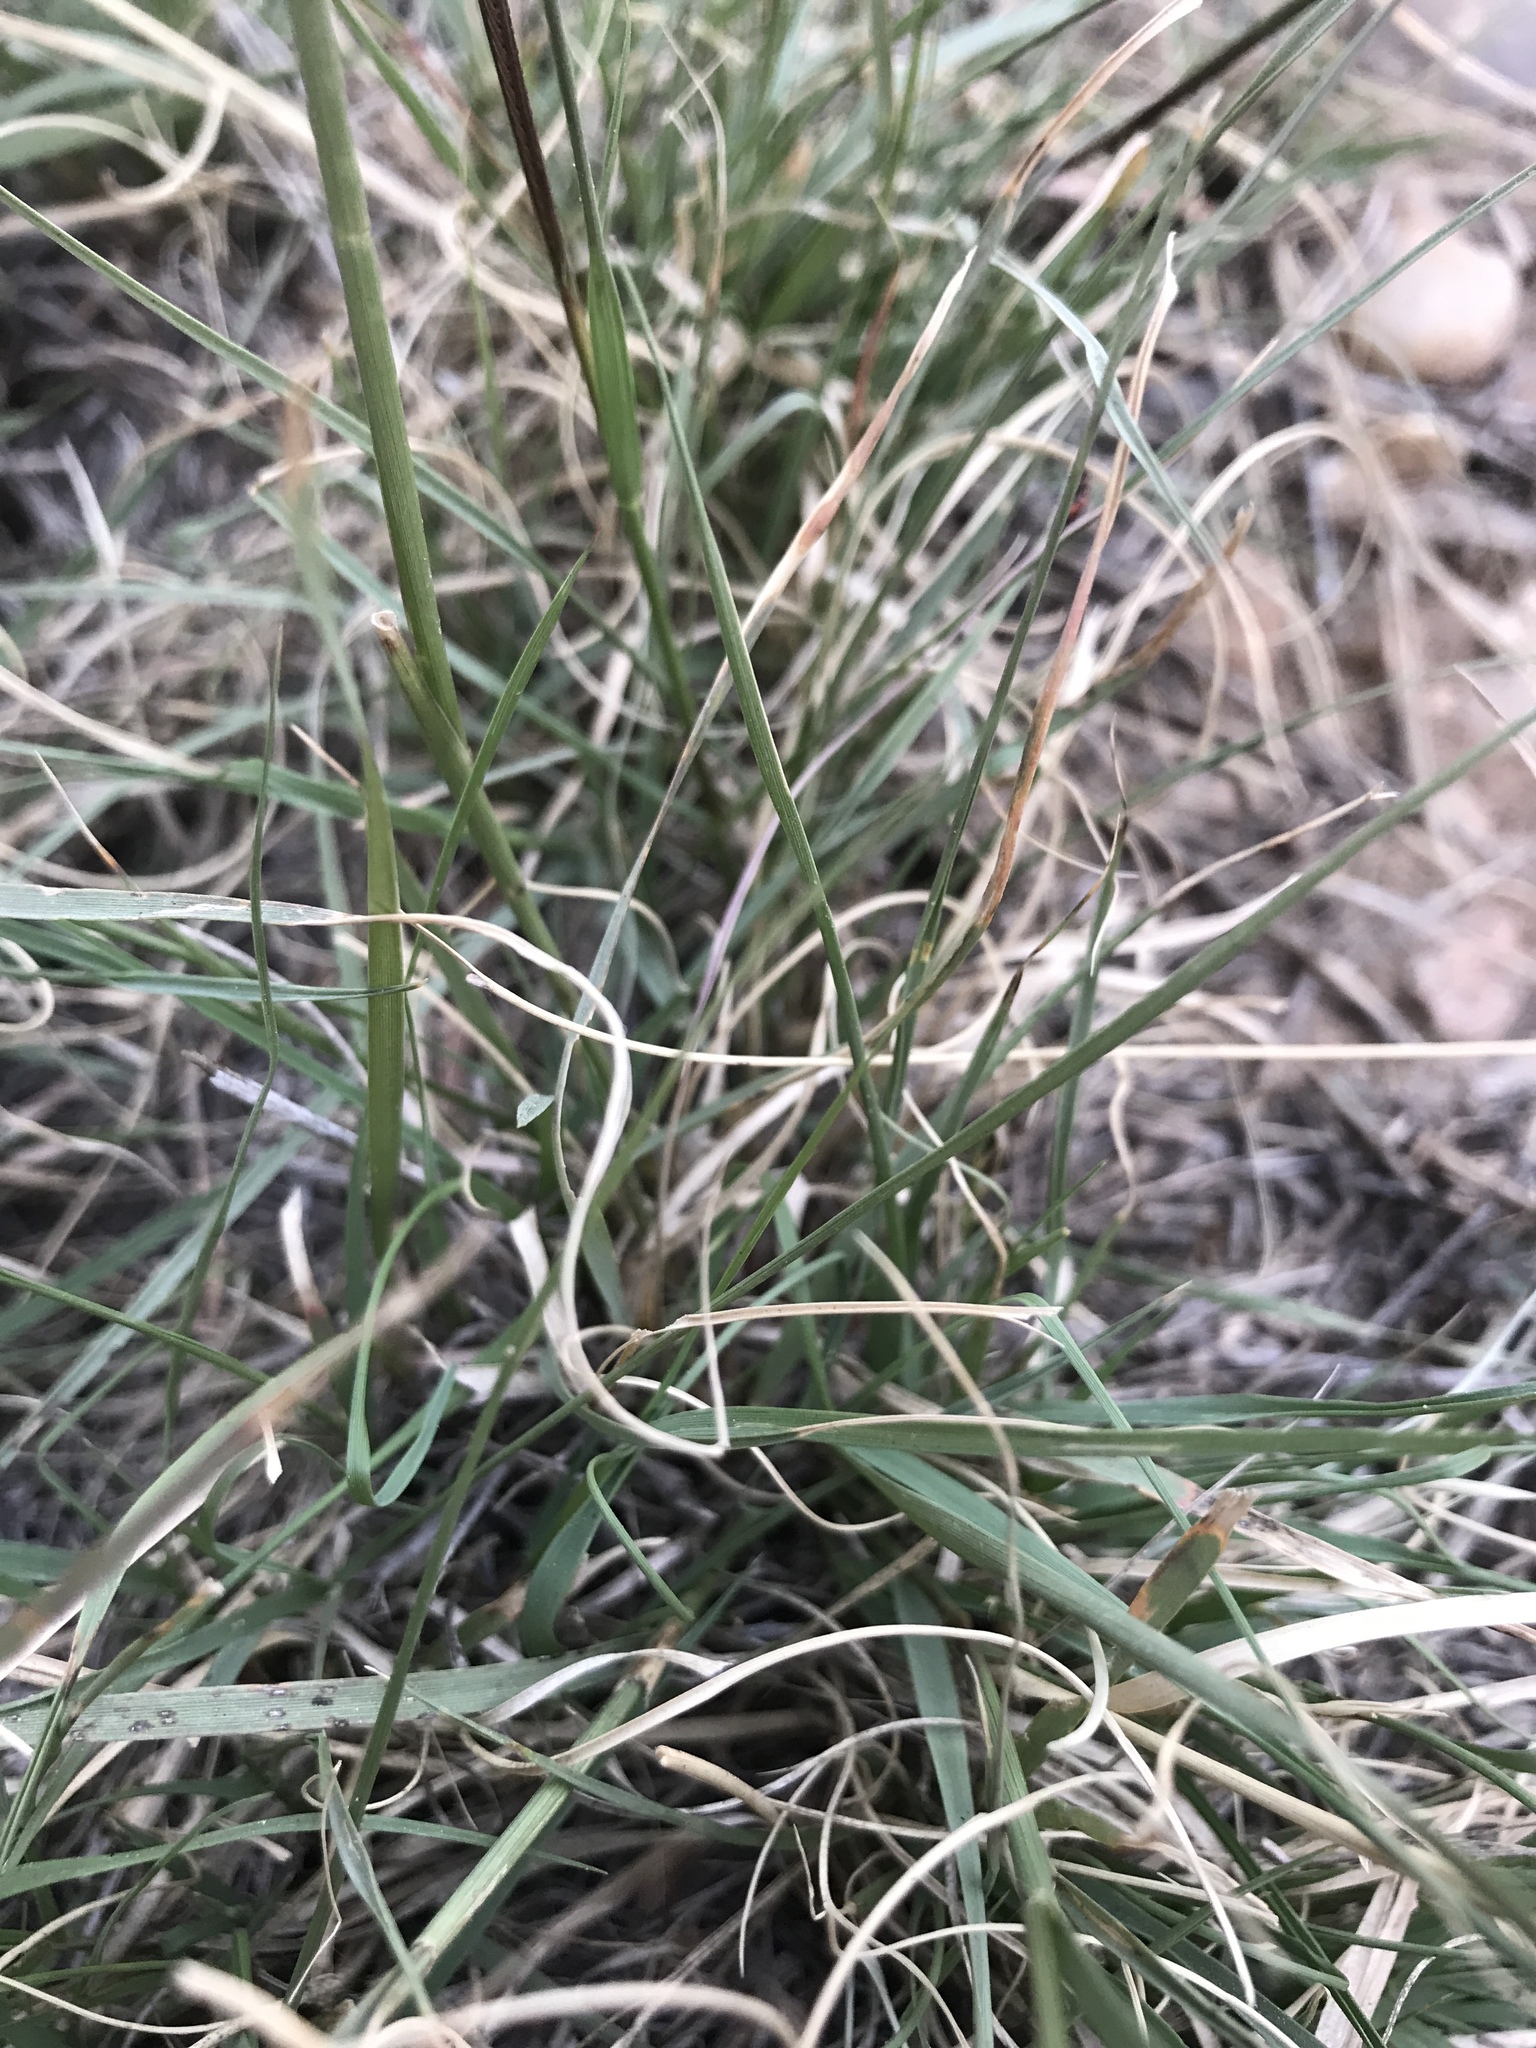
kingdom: Plantae
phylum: Tracheophyta
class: Liliopsida
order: Poales
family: Poaceae
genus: Bouteloua
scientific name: Bouteloua gracilis
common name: Blue grama
